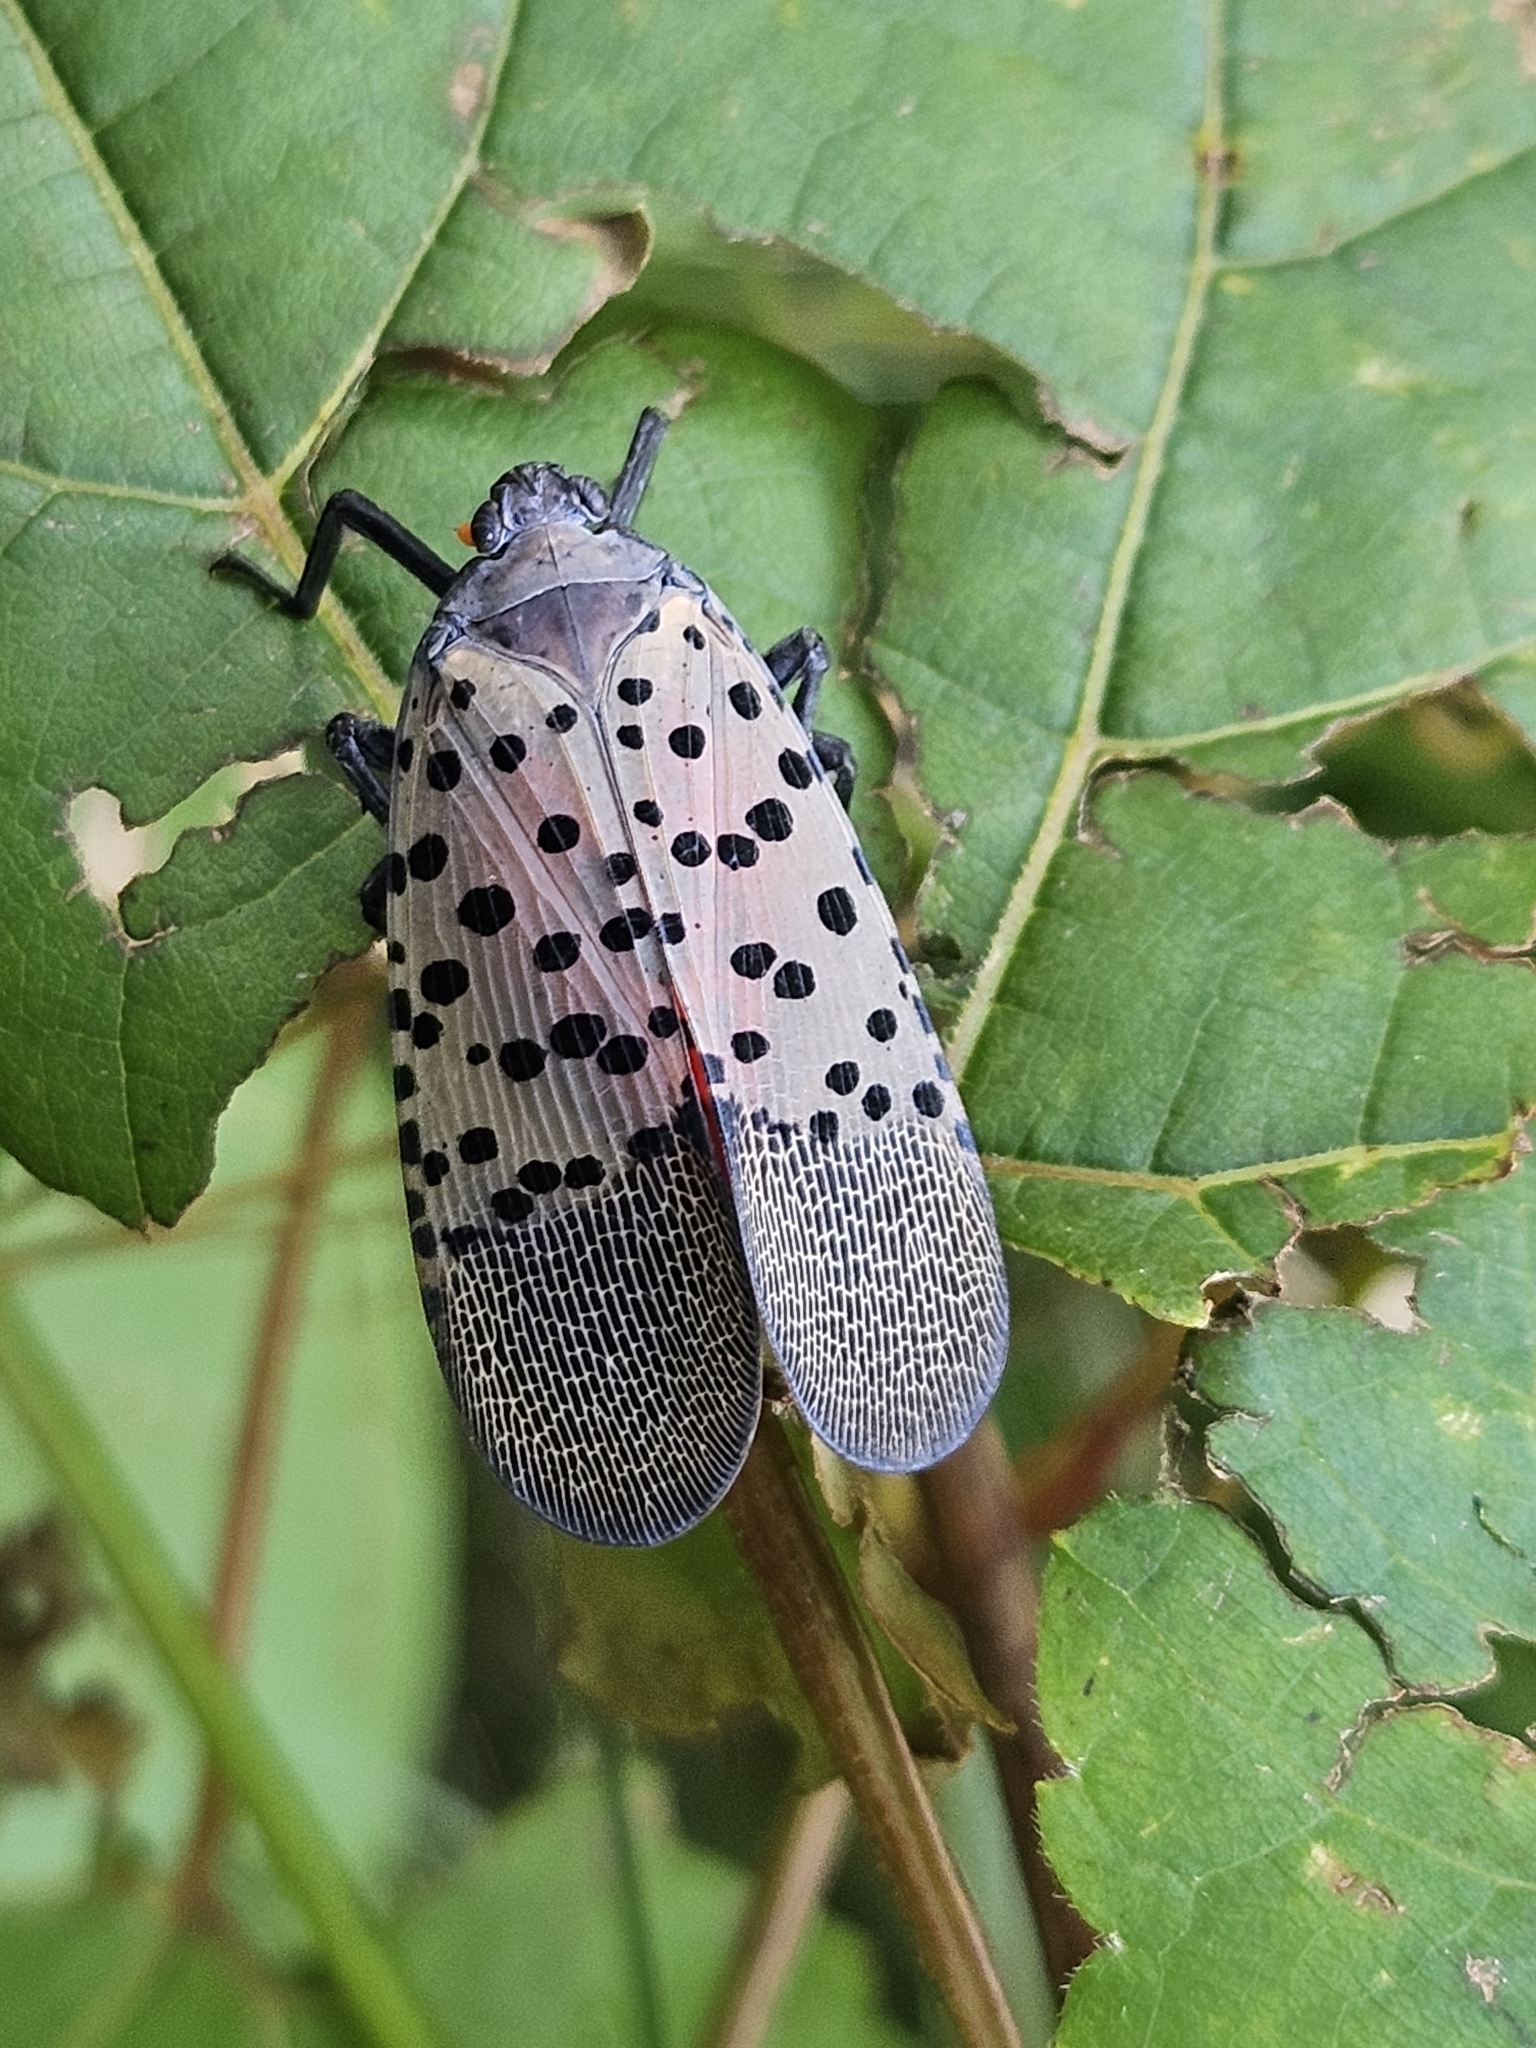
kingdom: Animalia
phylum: Arthropoda
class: Insecta
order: Hemiptera
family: Fulgoridae
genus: Lycorma
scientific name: Lycorma delicatula
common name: Spotted lanternfly
